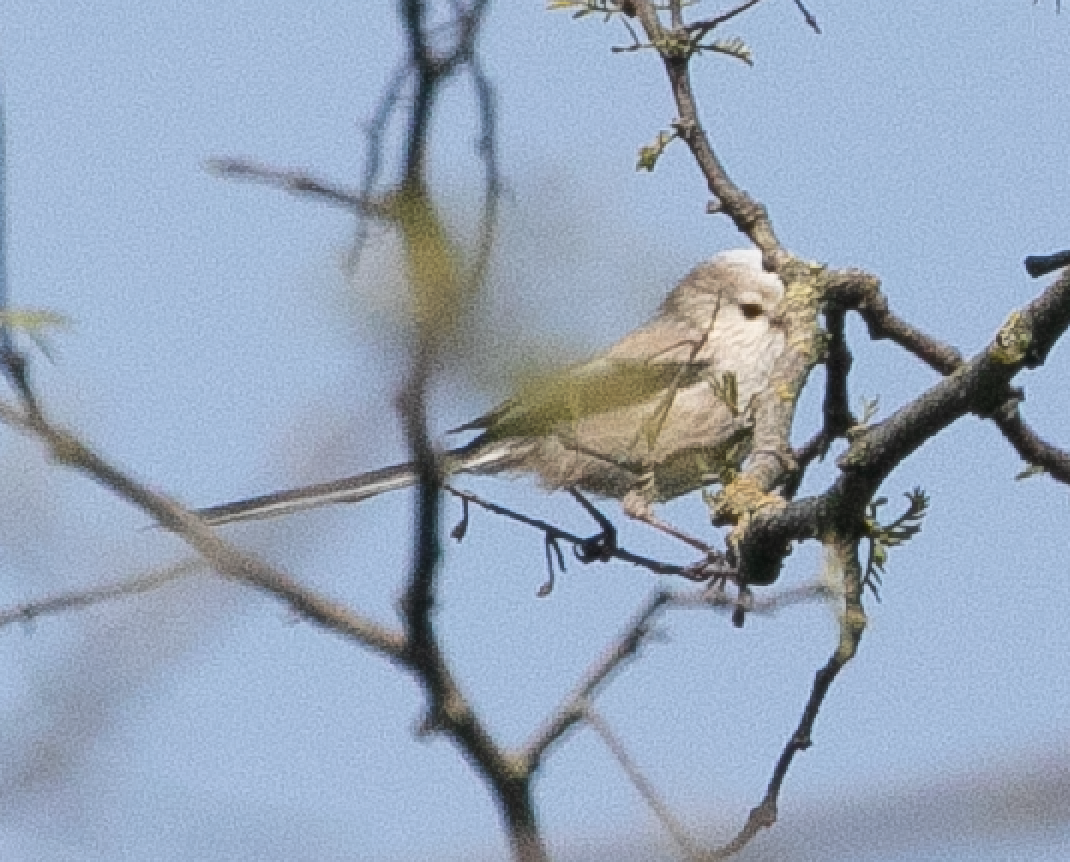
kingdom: Animalia
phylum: Chordata
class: Aves
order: Passeriformes
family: Aegithalidae
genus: Aegithalos
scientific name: Aegithalos caudatus
